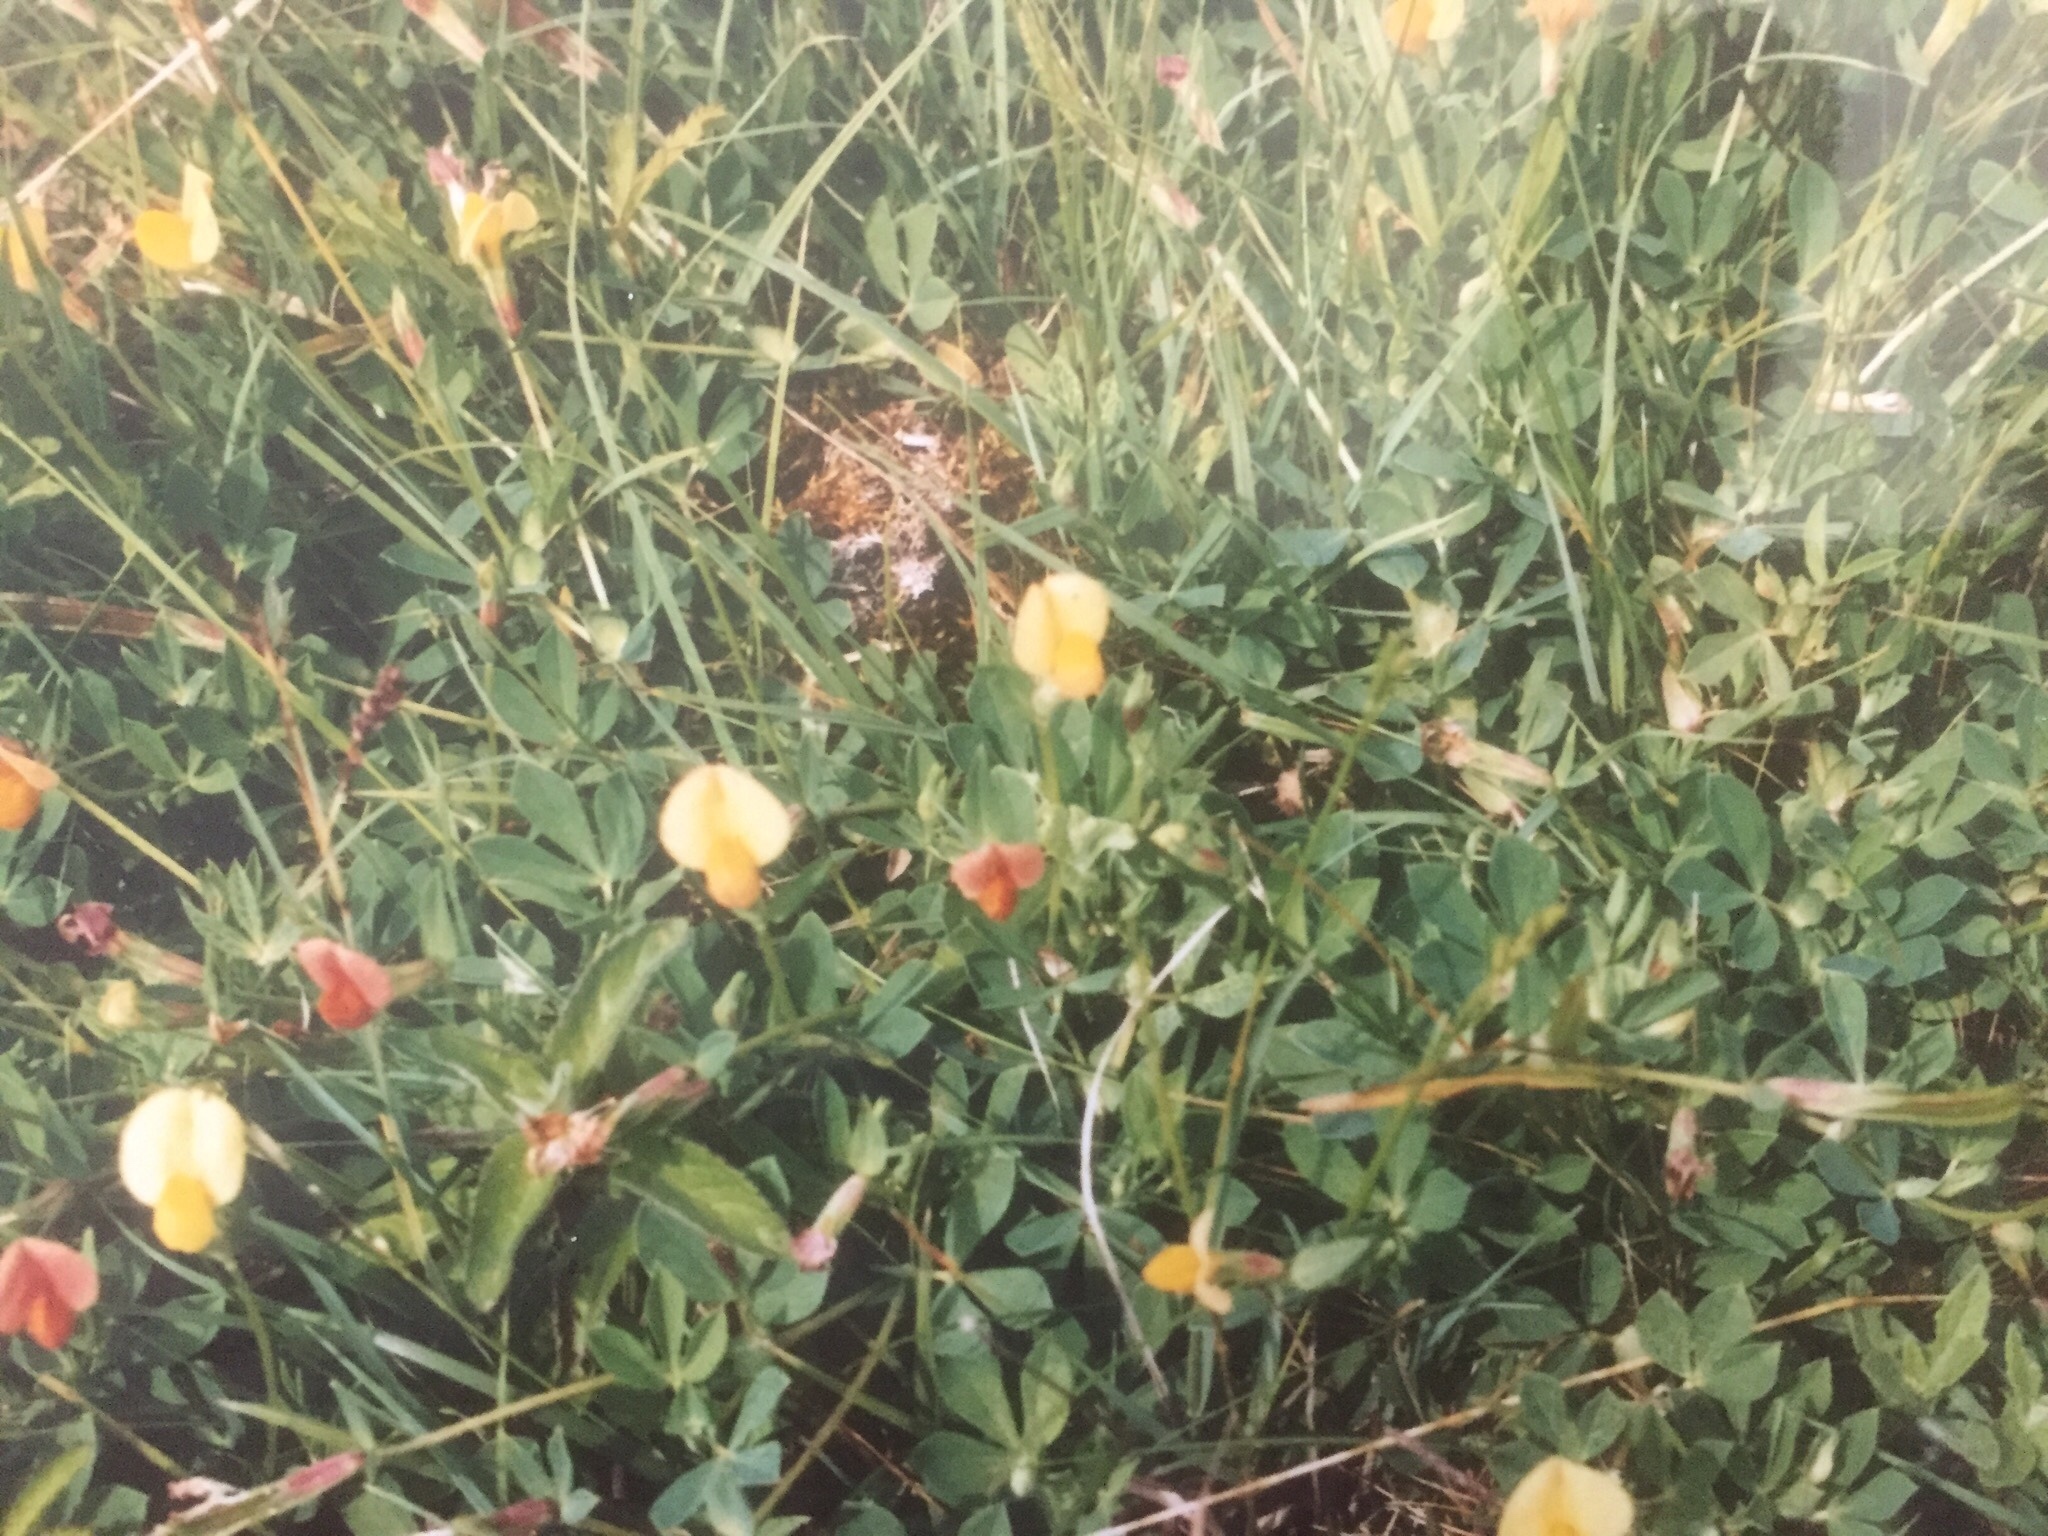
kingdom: Plantae
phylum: Tracheophyta
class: Magnoliopsida
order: Fabales
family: Fabaceae
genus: Lotus
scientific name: Lotus maritimus
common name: Dragon's-teeth
